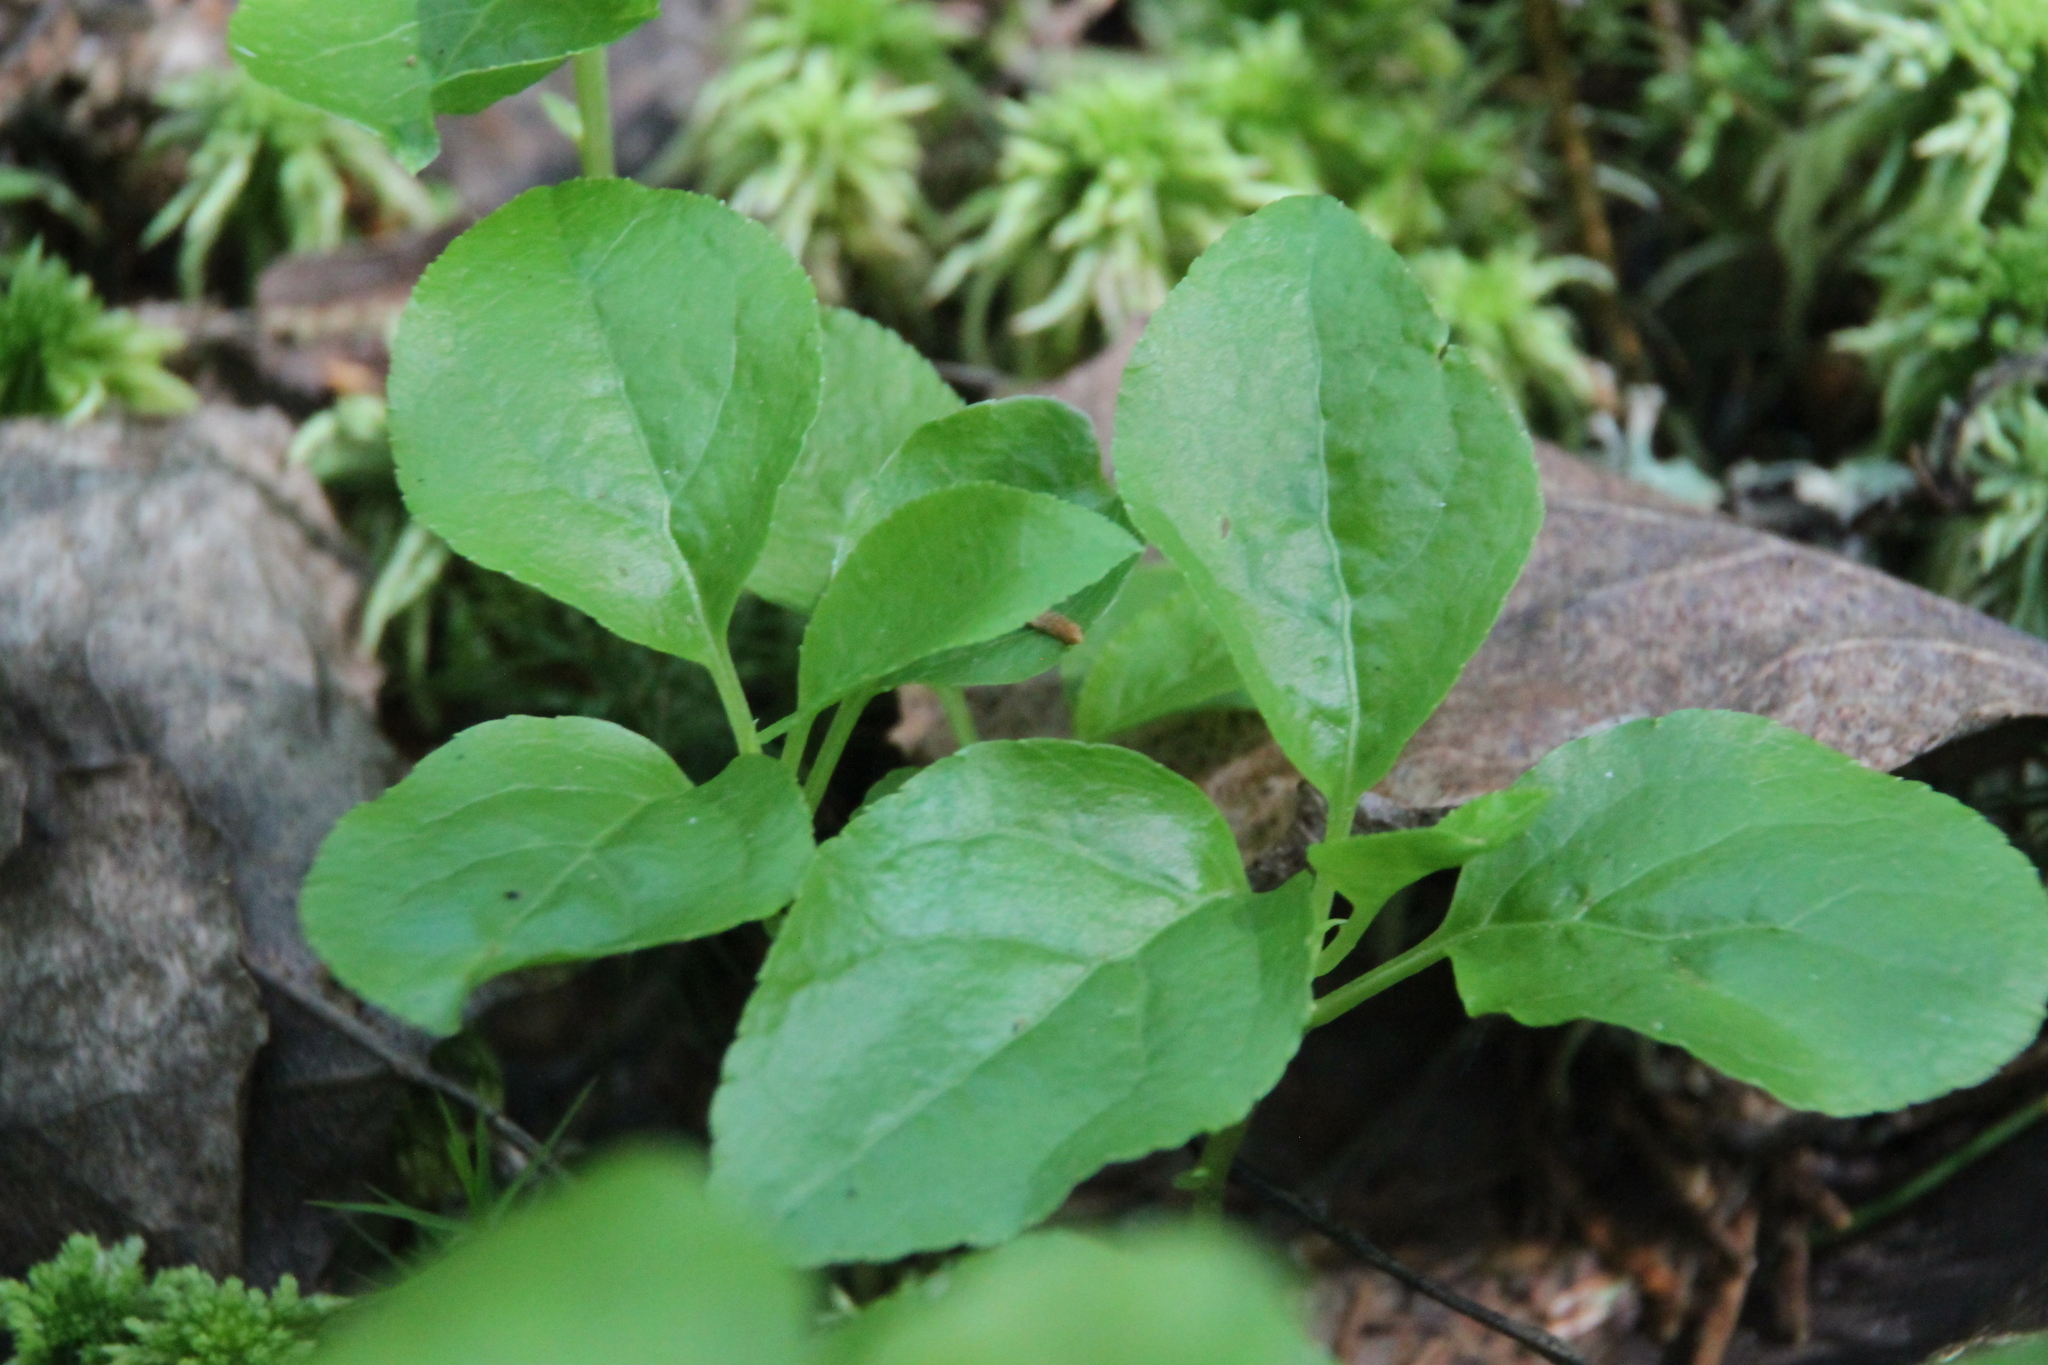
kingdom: Plantae
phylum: Tracheophyta
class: Magnoliopsida
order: Ericales
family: Ericaceae
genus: Orthilia
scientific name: Orthilia secunda
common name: One-sided orthilia
